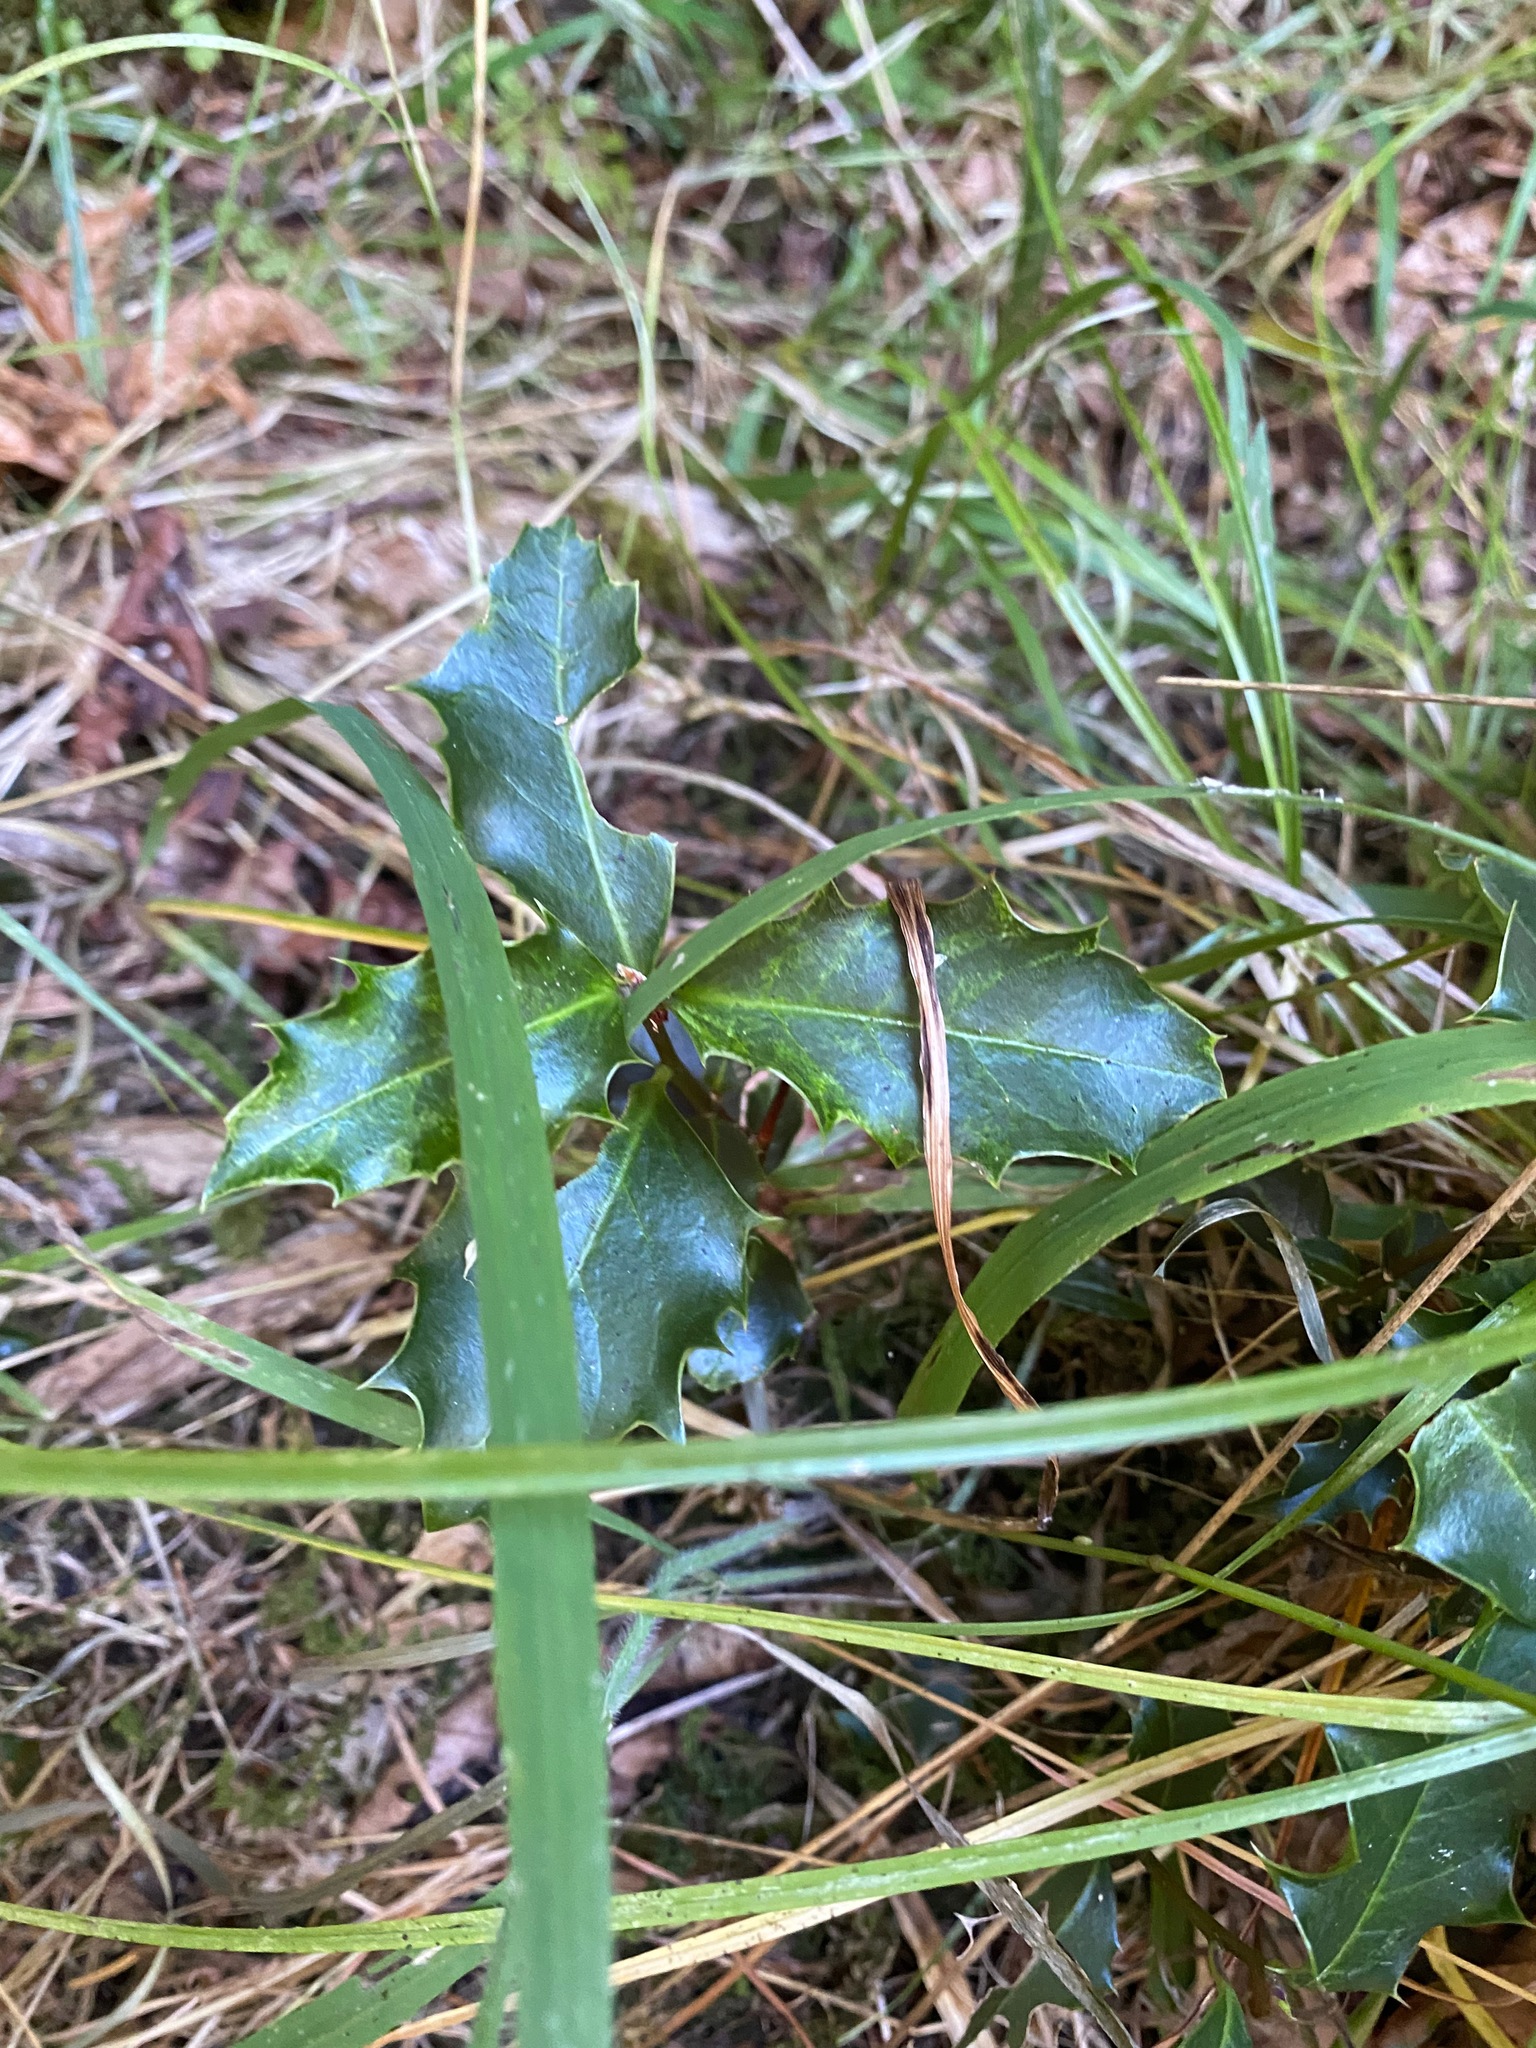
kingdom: Plantae
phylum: Tracheophyta
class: Magnoliopsida
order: Aquifoliales
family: Aquifoliaceae
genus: Ilex
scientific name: Ilex aquifolium
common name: English holly
